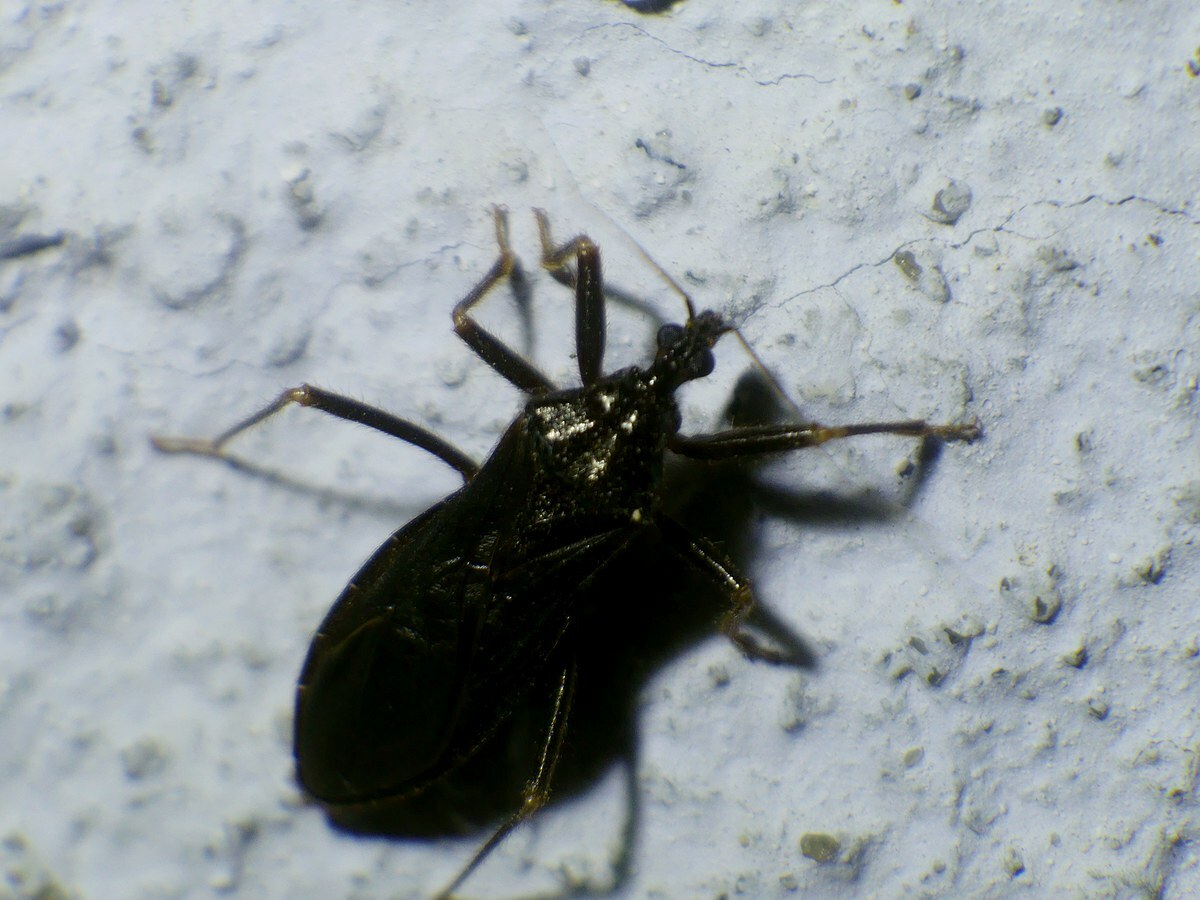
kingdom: Animalia
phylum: Arthropoda
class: Insecta
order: Hemiptera
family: Reduviidae
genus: Reduvius
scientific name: Reduvius personatus
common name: Masked hunter
